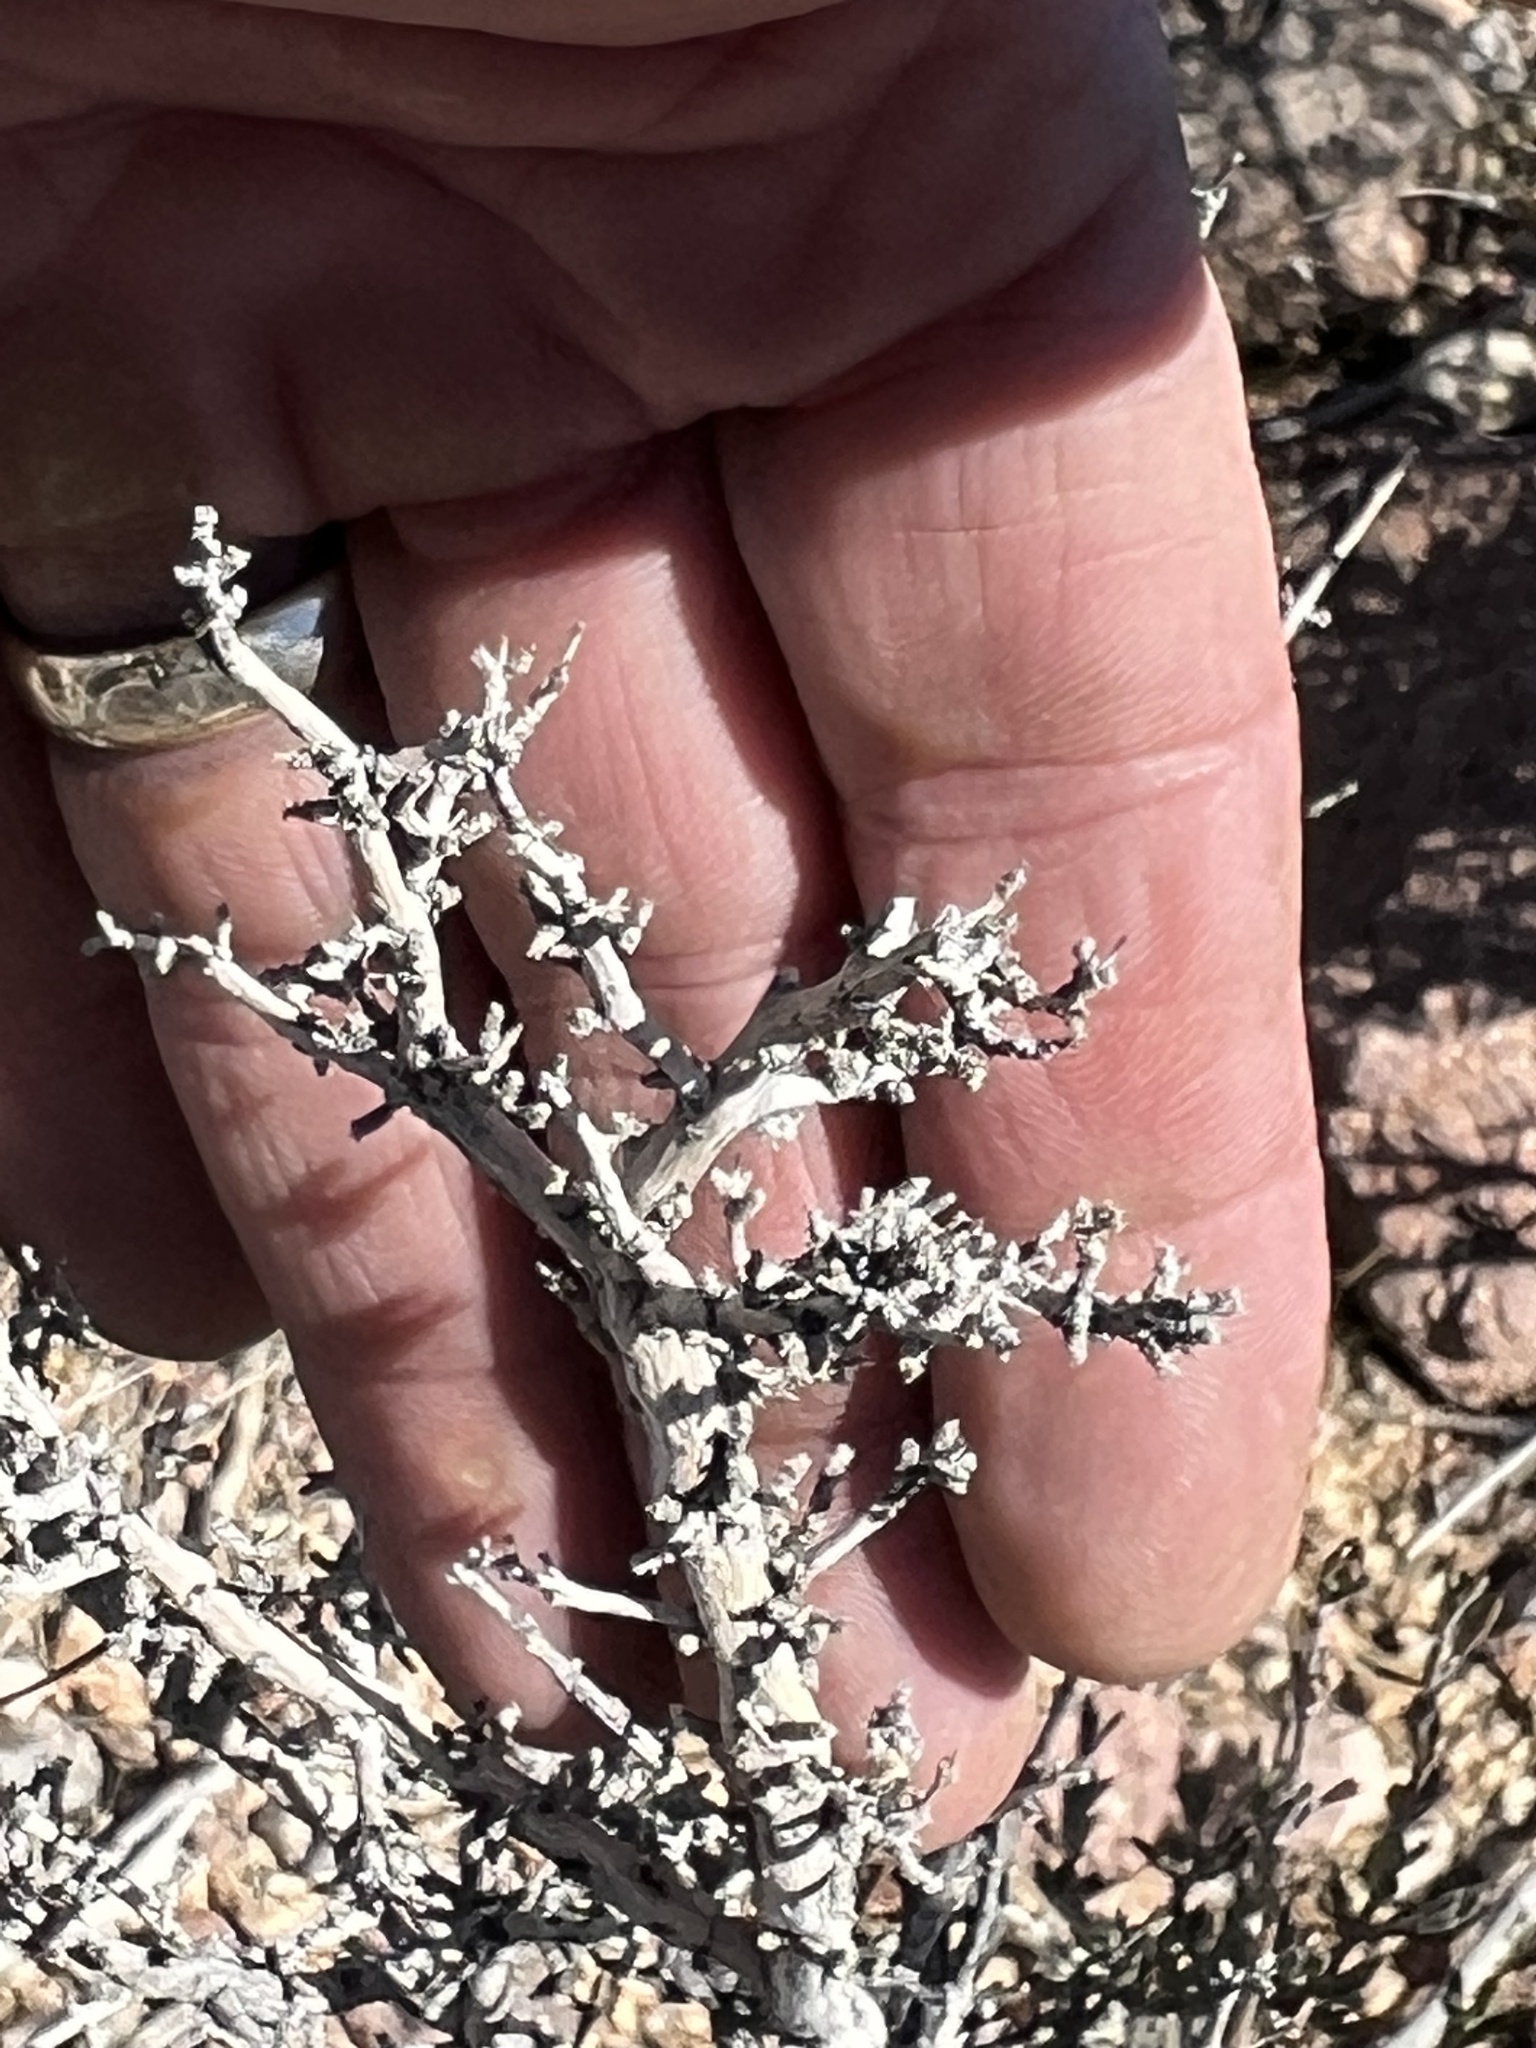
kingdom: Plantae
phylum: Tracheophyta
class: Magnoliopsida
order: Rosales
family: Rosaceae
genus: Coleogyne
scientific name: Coleogyne ramosissima
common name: Blackbrush
